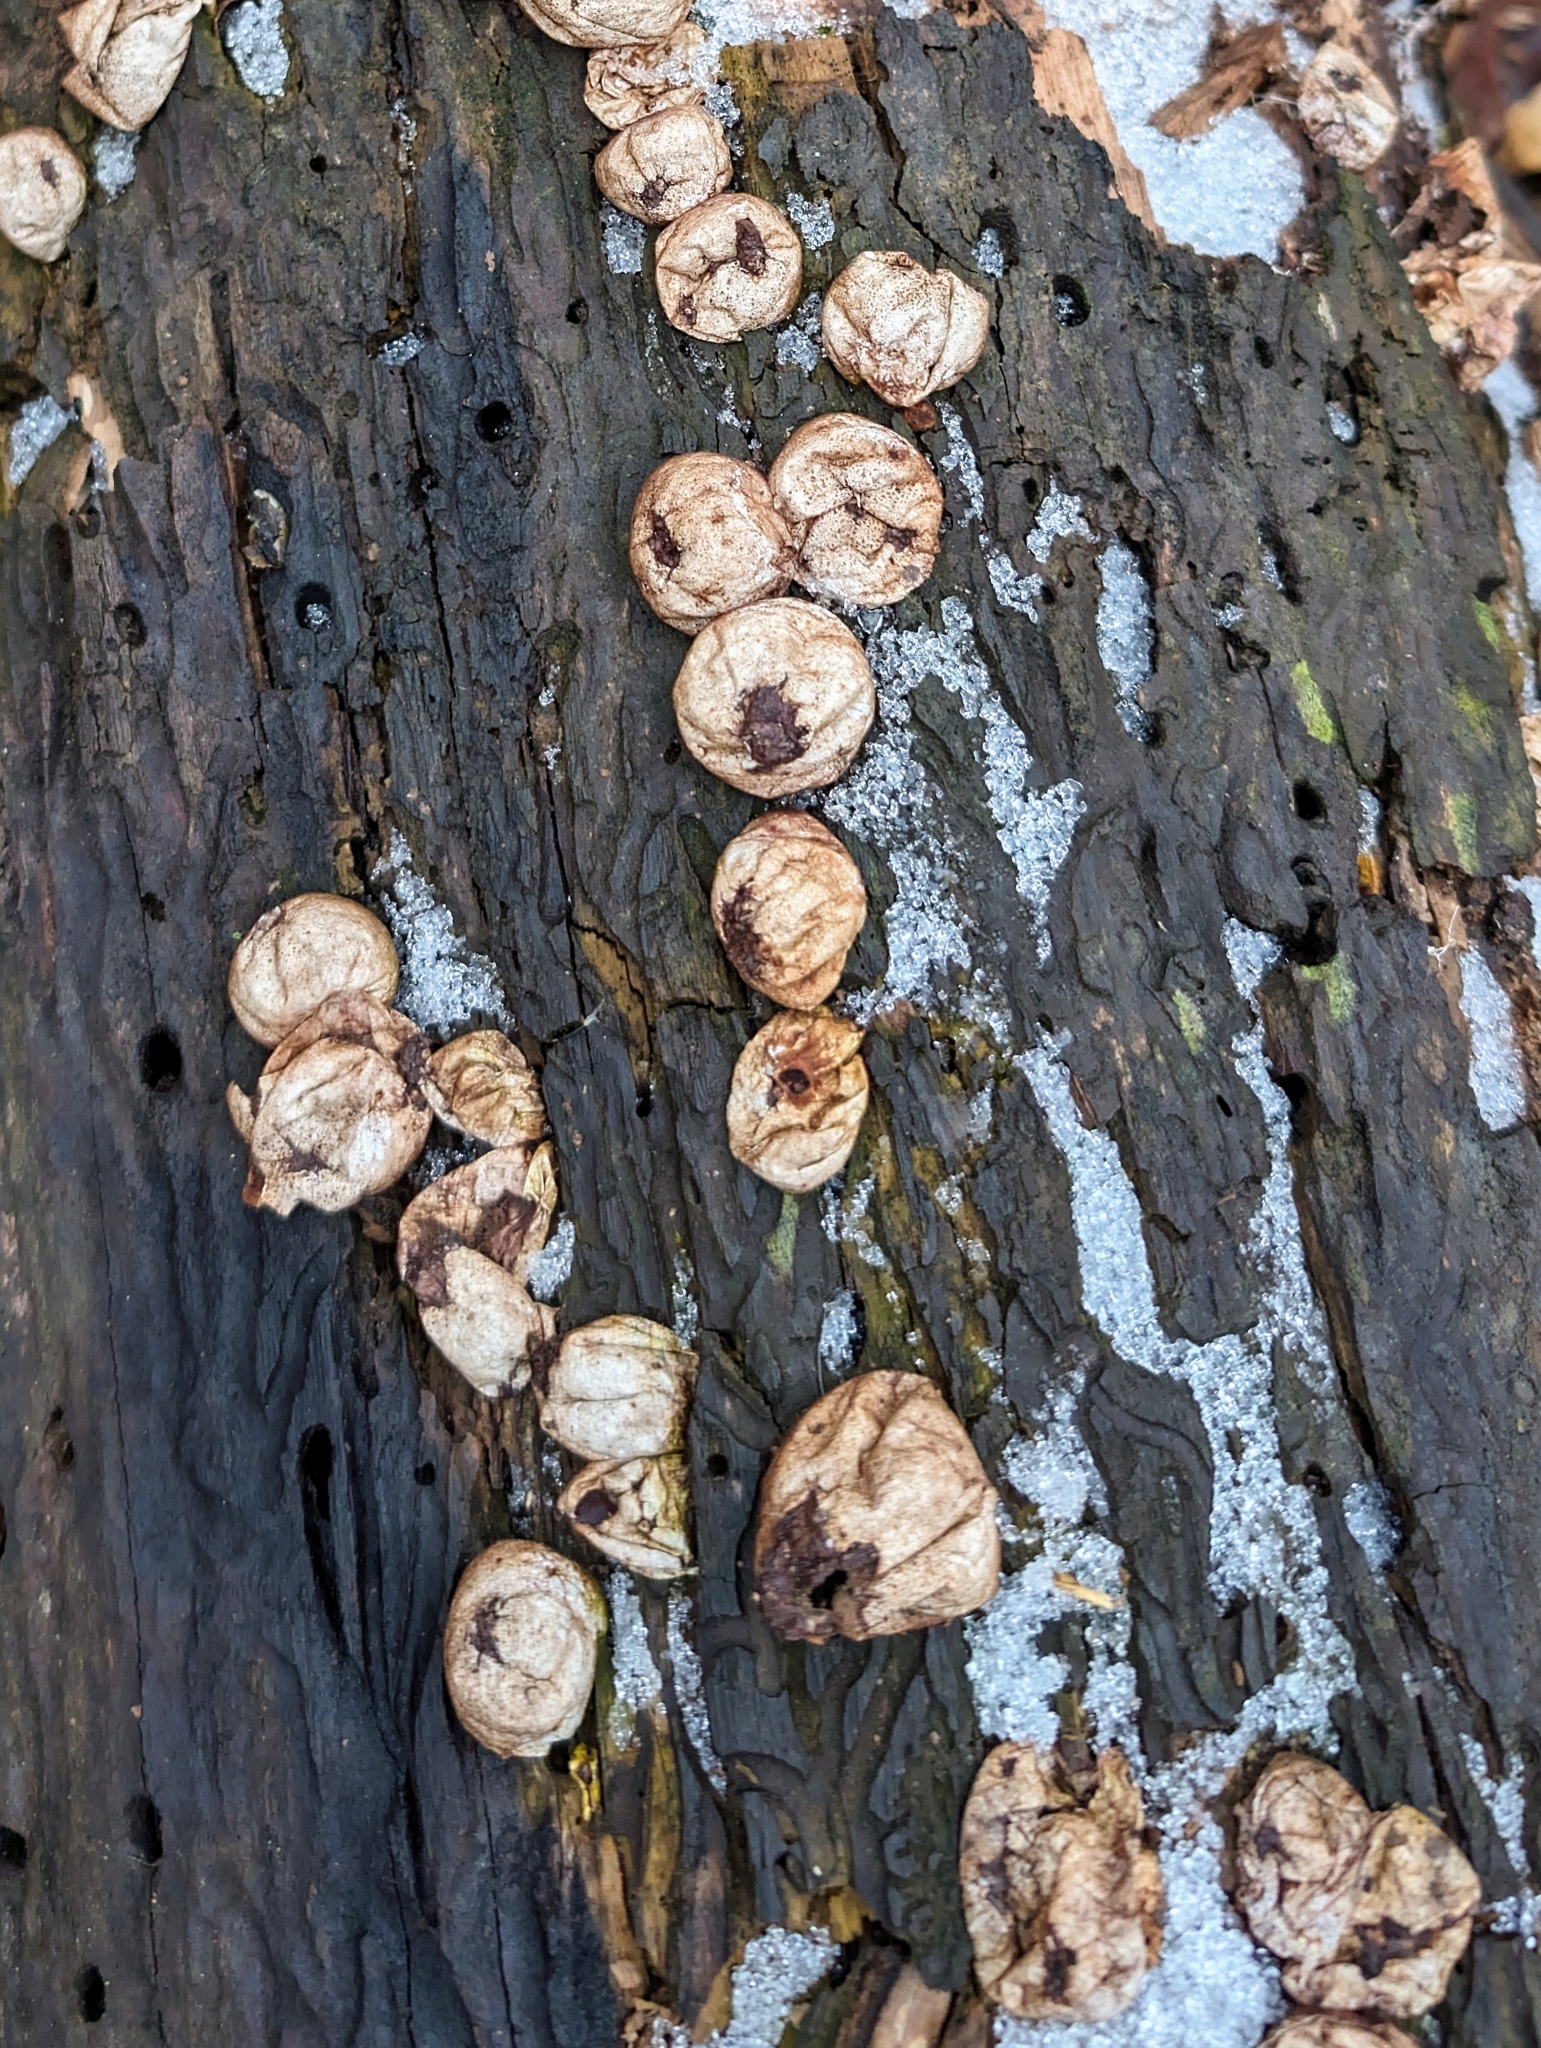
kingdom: Fungi
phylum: Basidiomycota
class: Agaricomycetes
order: Agaricales
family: Lycoperdaceae
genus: Apioperdon
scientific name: Apioperdon pyriforme
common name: Pear-shaped puffball
